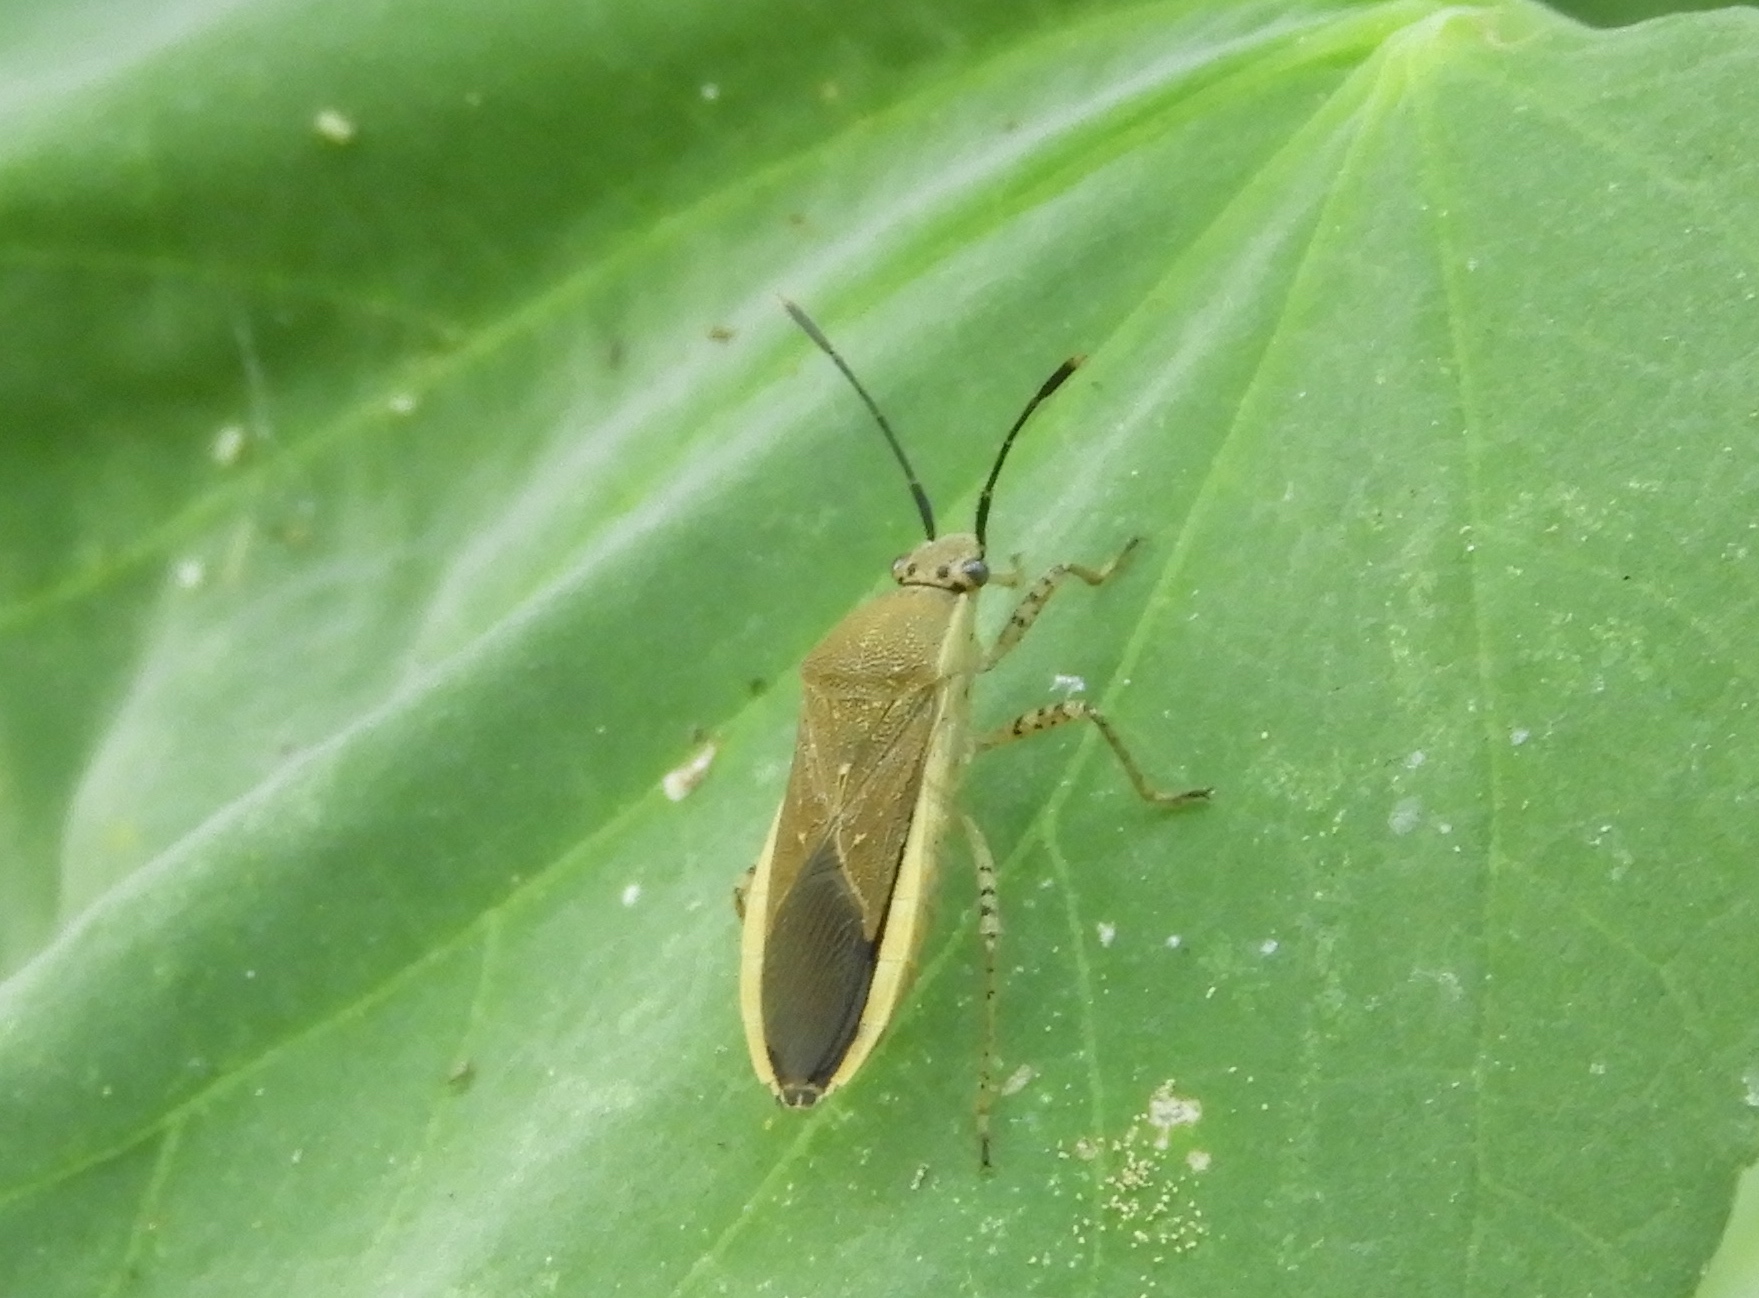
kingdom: Animalia
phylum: Arthropoda
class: Insecta
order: Hemiptera
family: Coreidae
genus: Catorhintha
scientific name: Catorhintha selector
